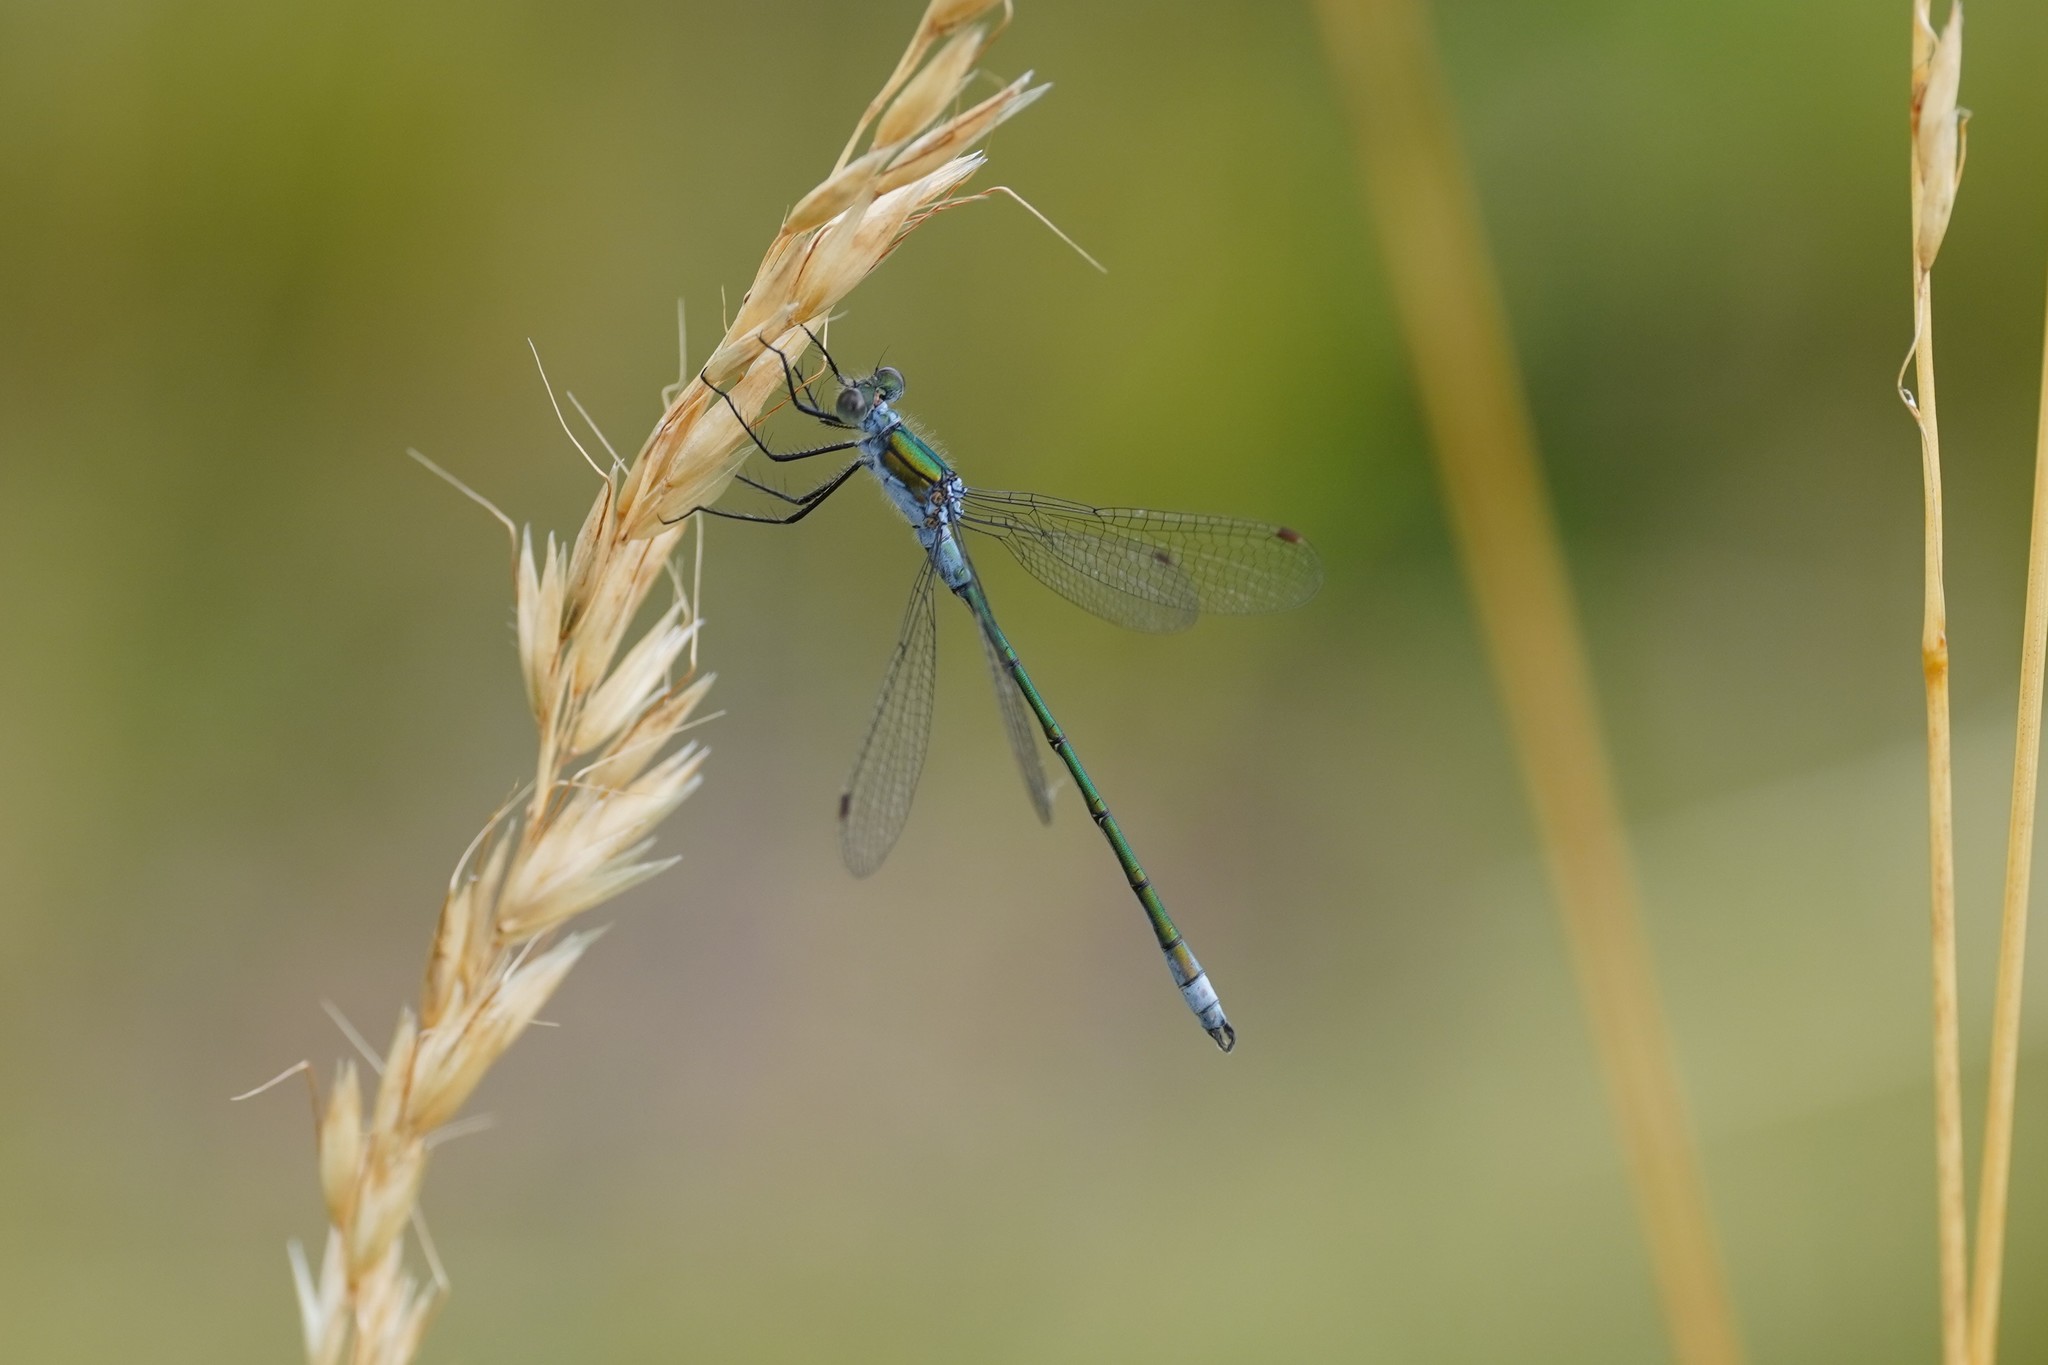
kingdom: Animalia
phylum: Arthropoda
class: Insecta
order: Odonata
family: Lestidae
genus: Lestes
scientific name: Lestes sponsa
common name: Common spreadwing
